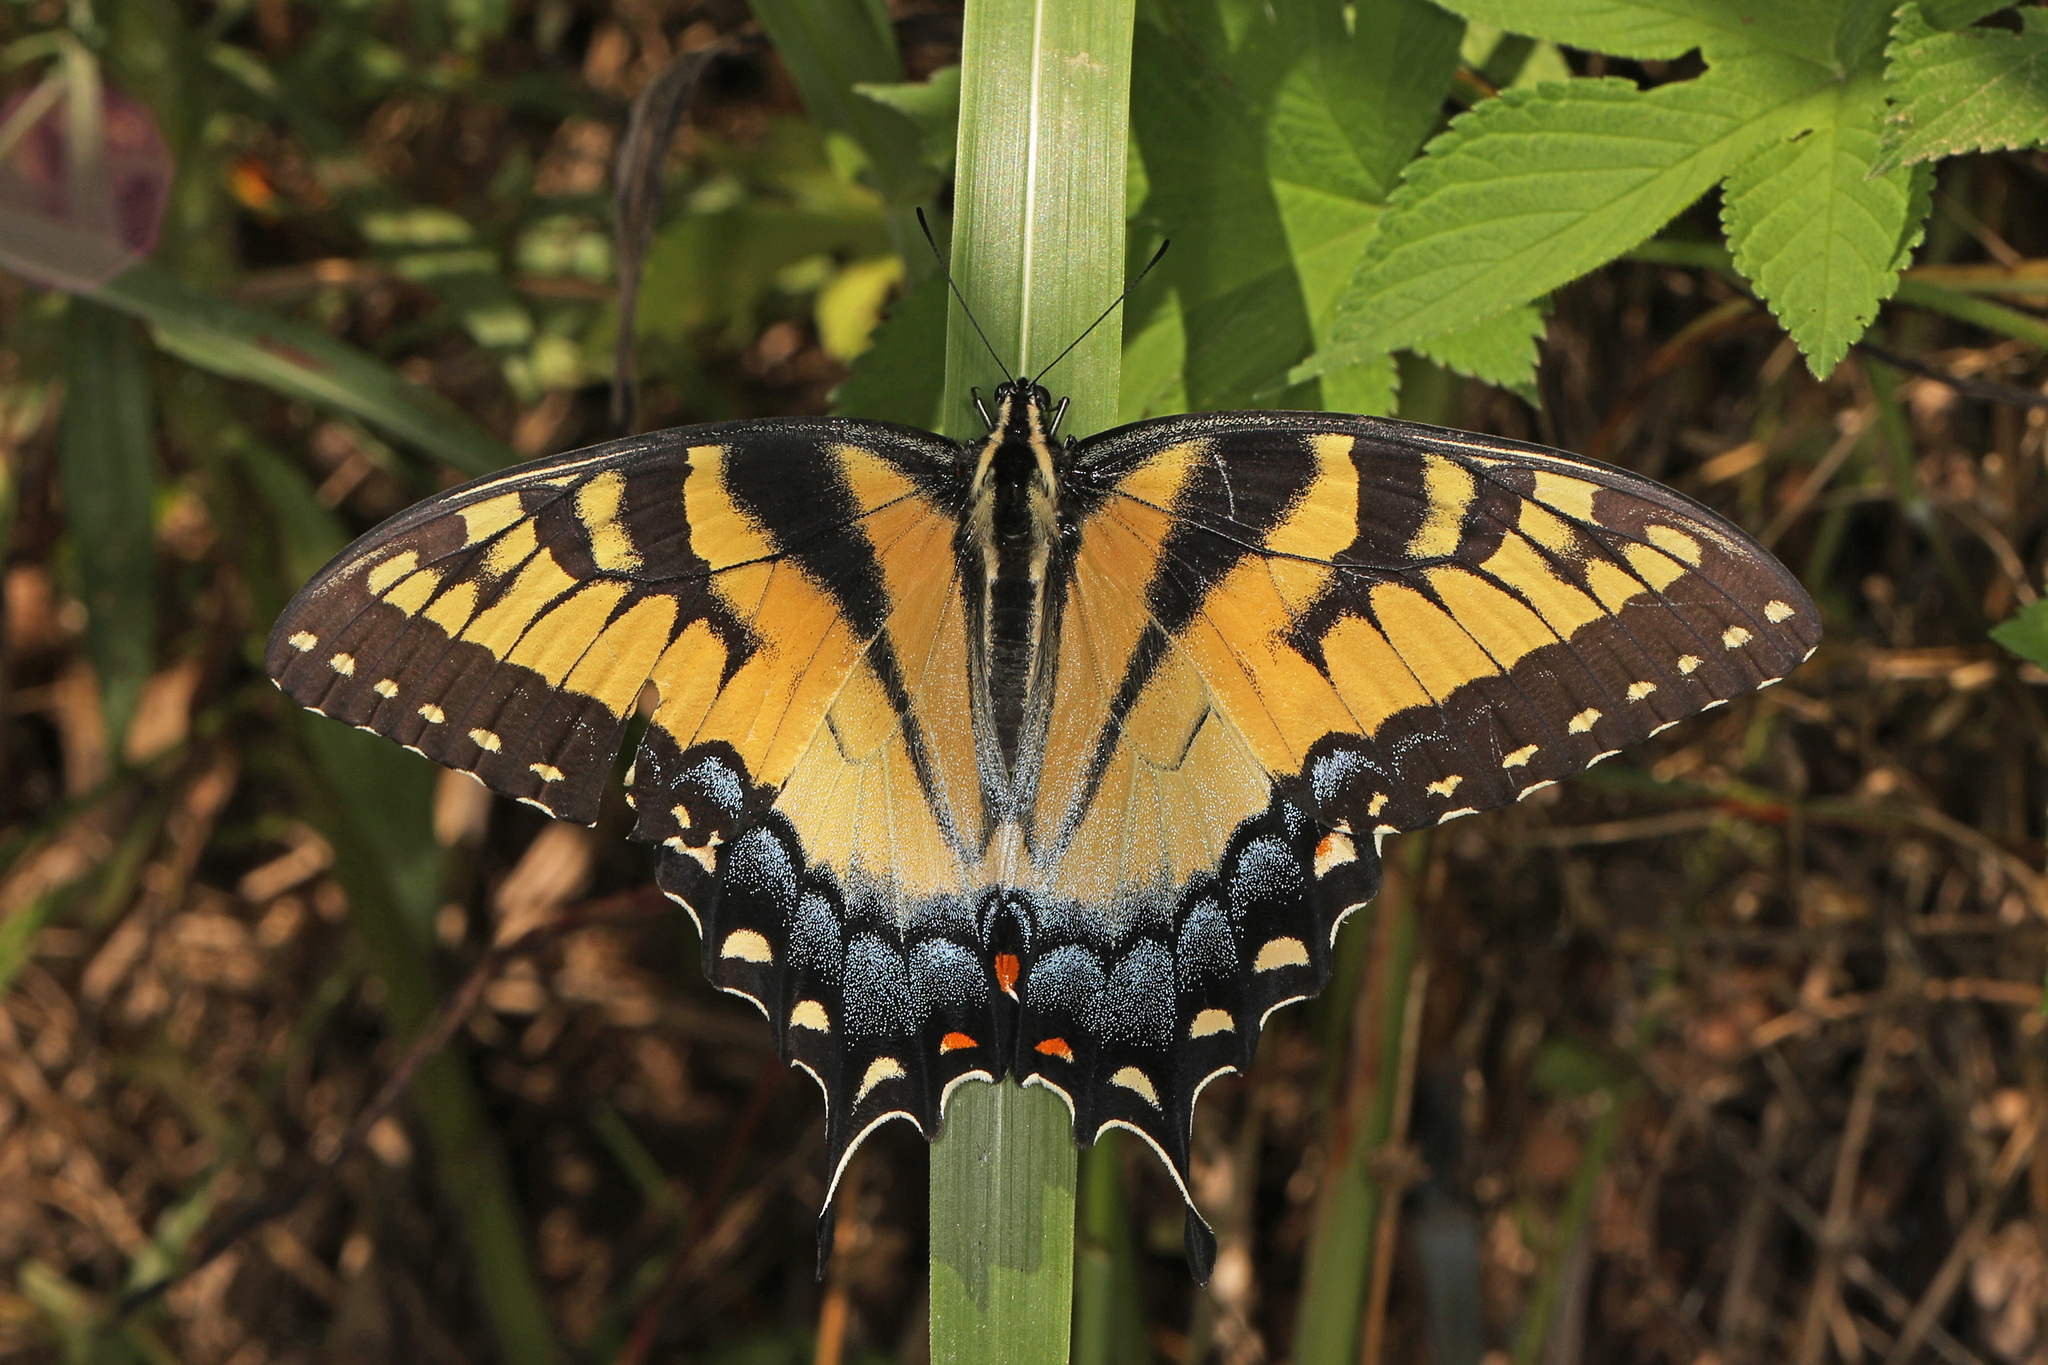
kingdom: Animalia
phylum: Arthropoda
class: Insecta
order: Lepidoptera
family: Papilionidae
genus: Papilio
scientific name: Papilio glaucus
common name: Tiger swallowtail
